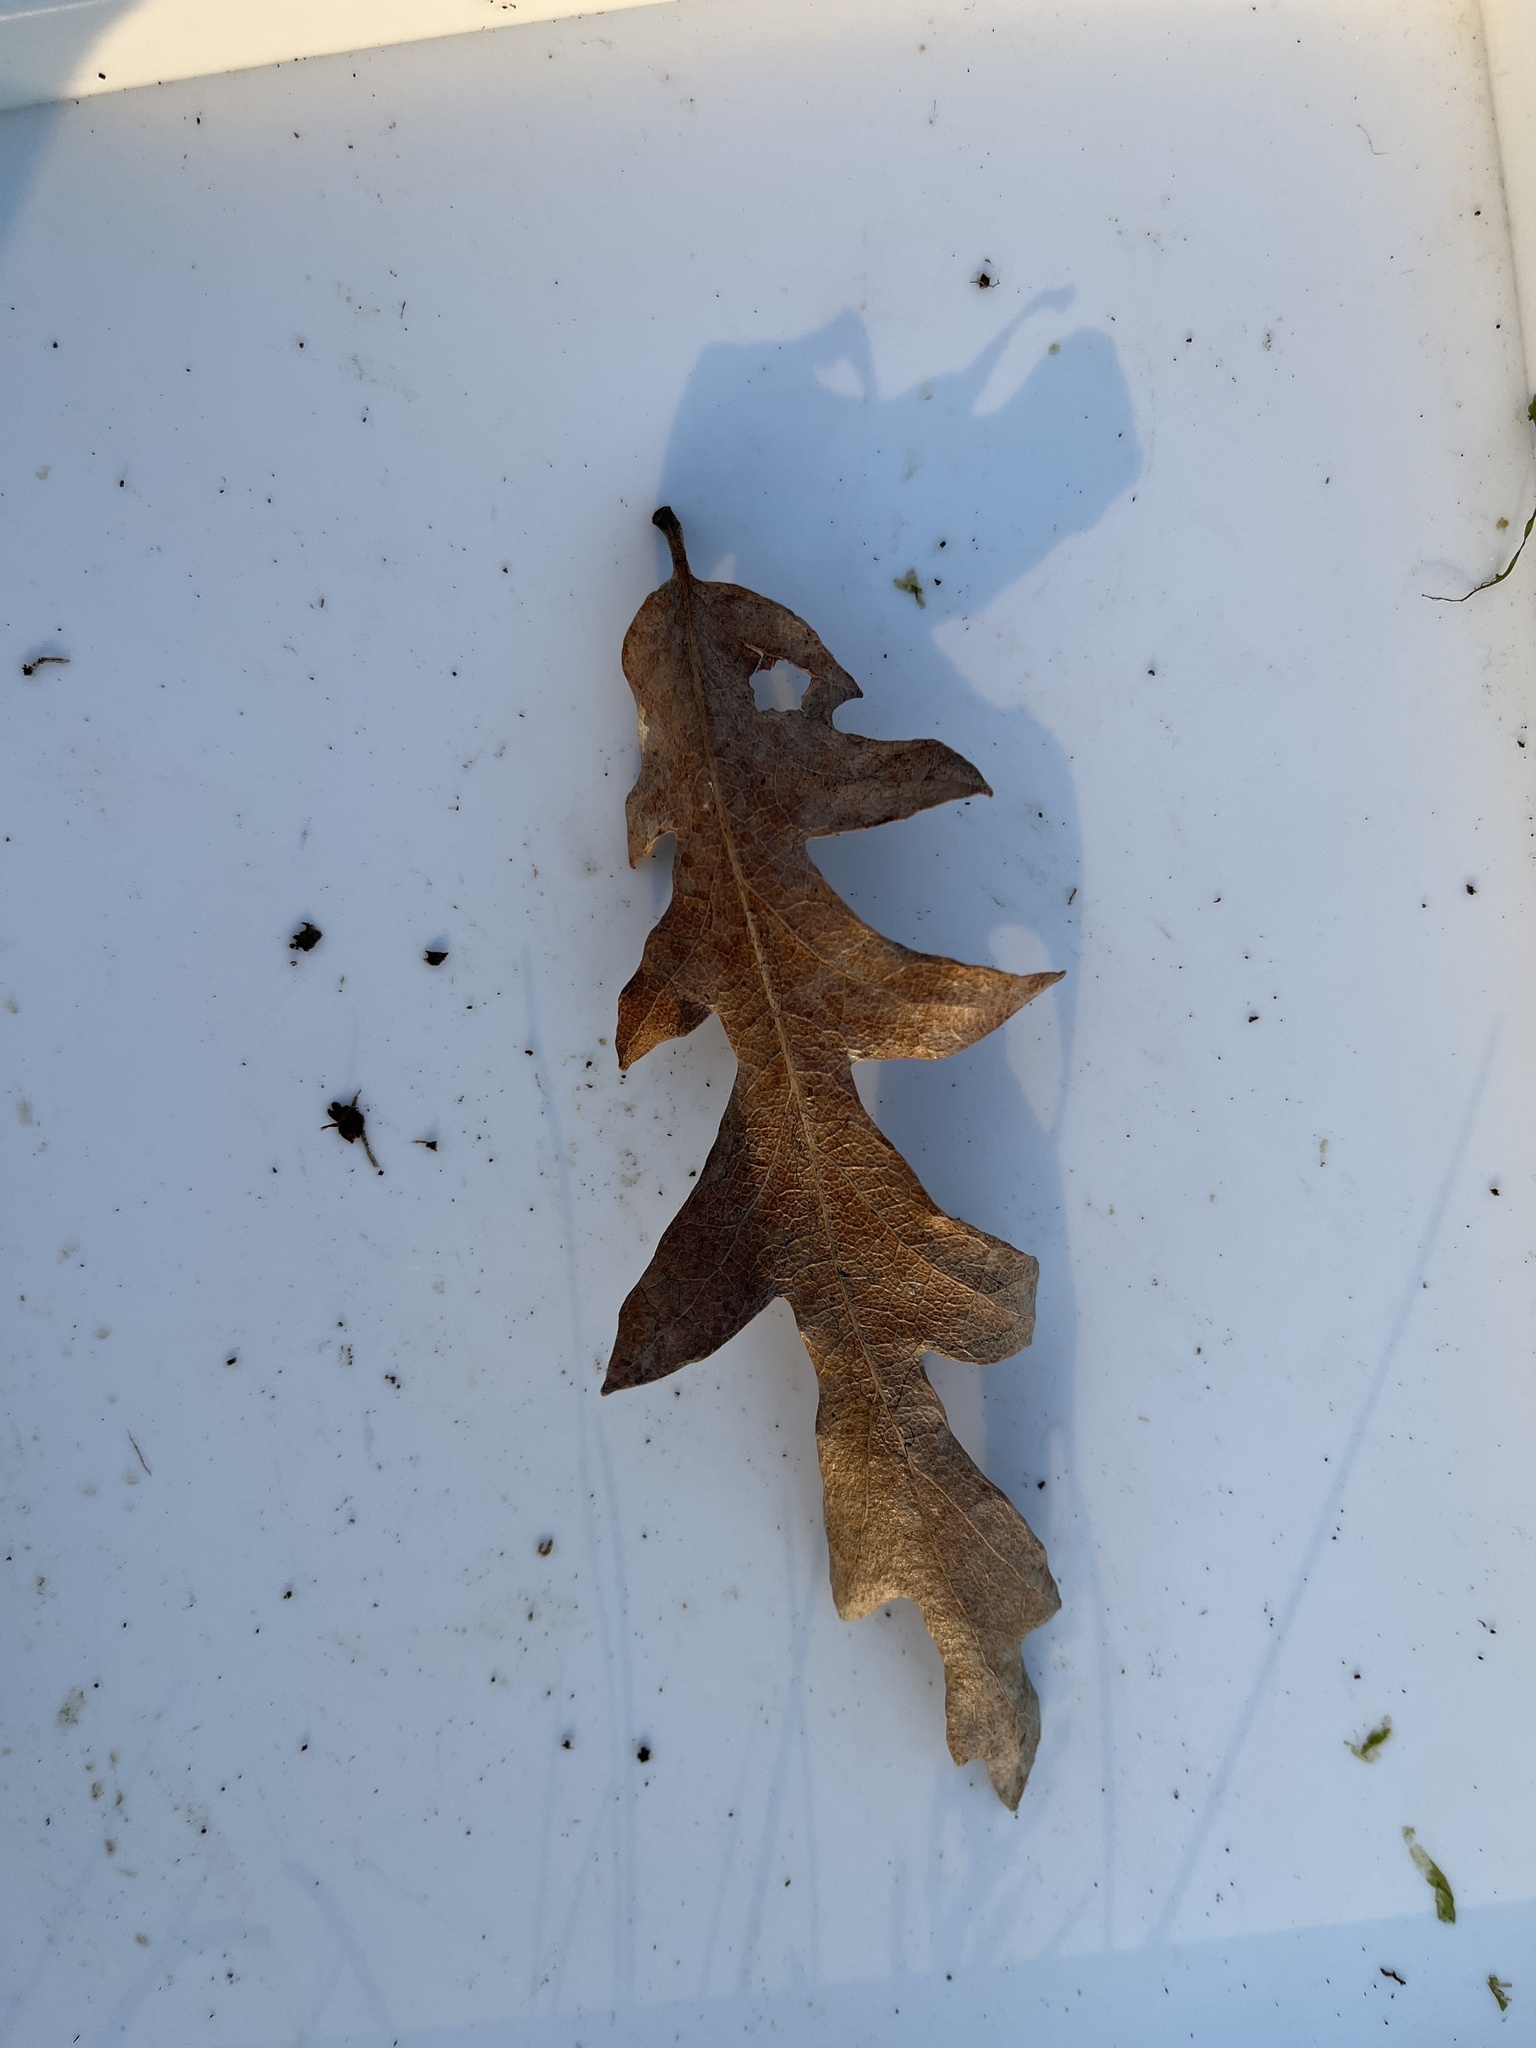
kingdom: Plantae
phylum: Tracheophyta
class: Magnoliopsida
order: Fagales
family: Fagaceae
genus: Quercus
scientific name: Quercus cerris
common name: Turkey oak
